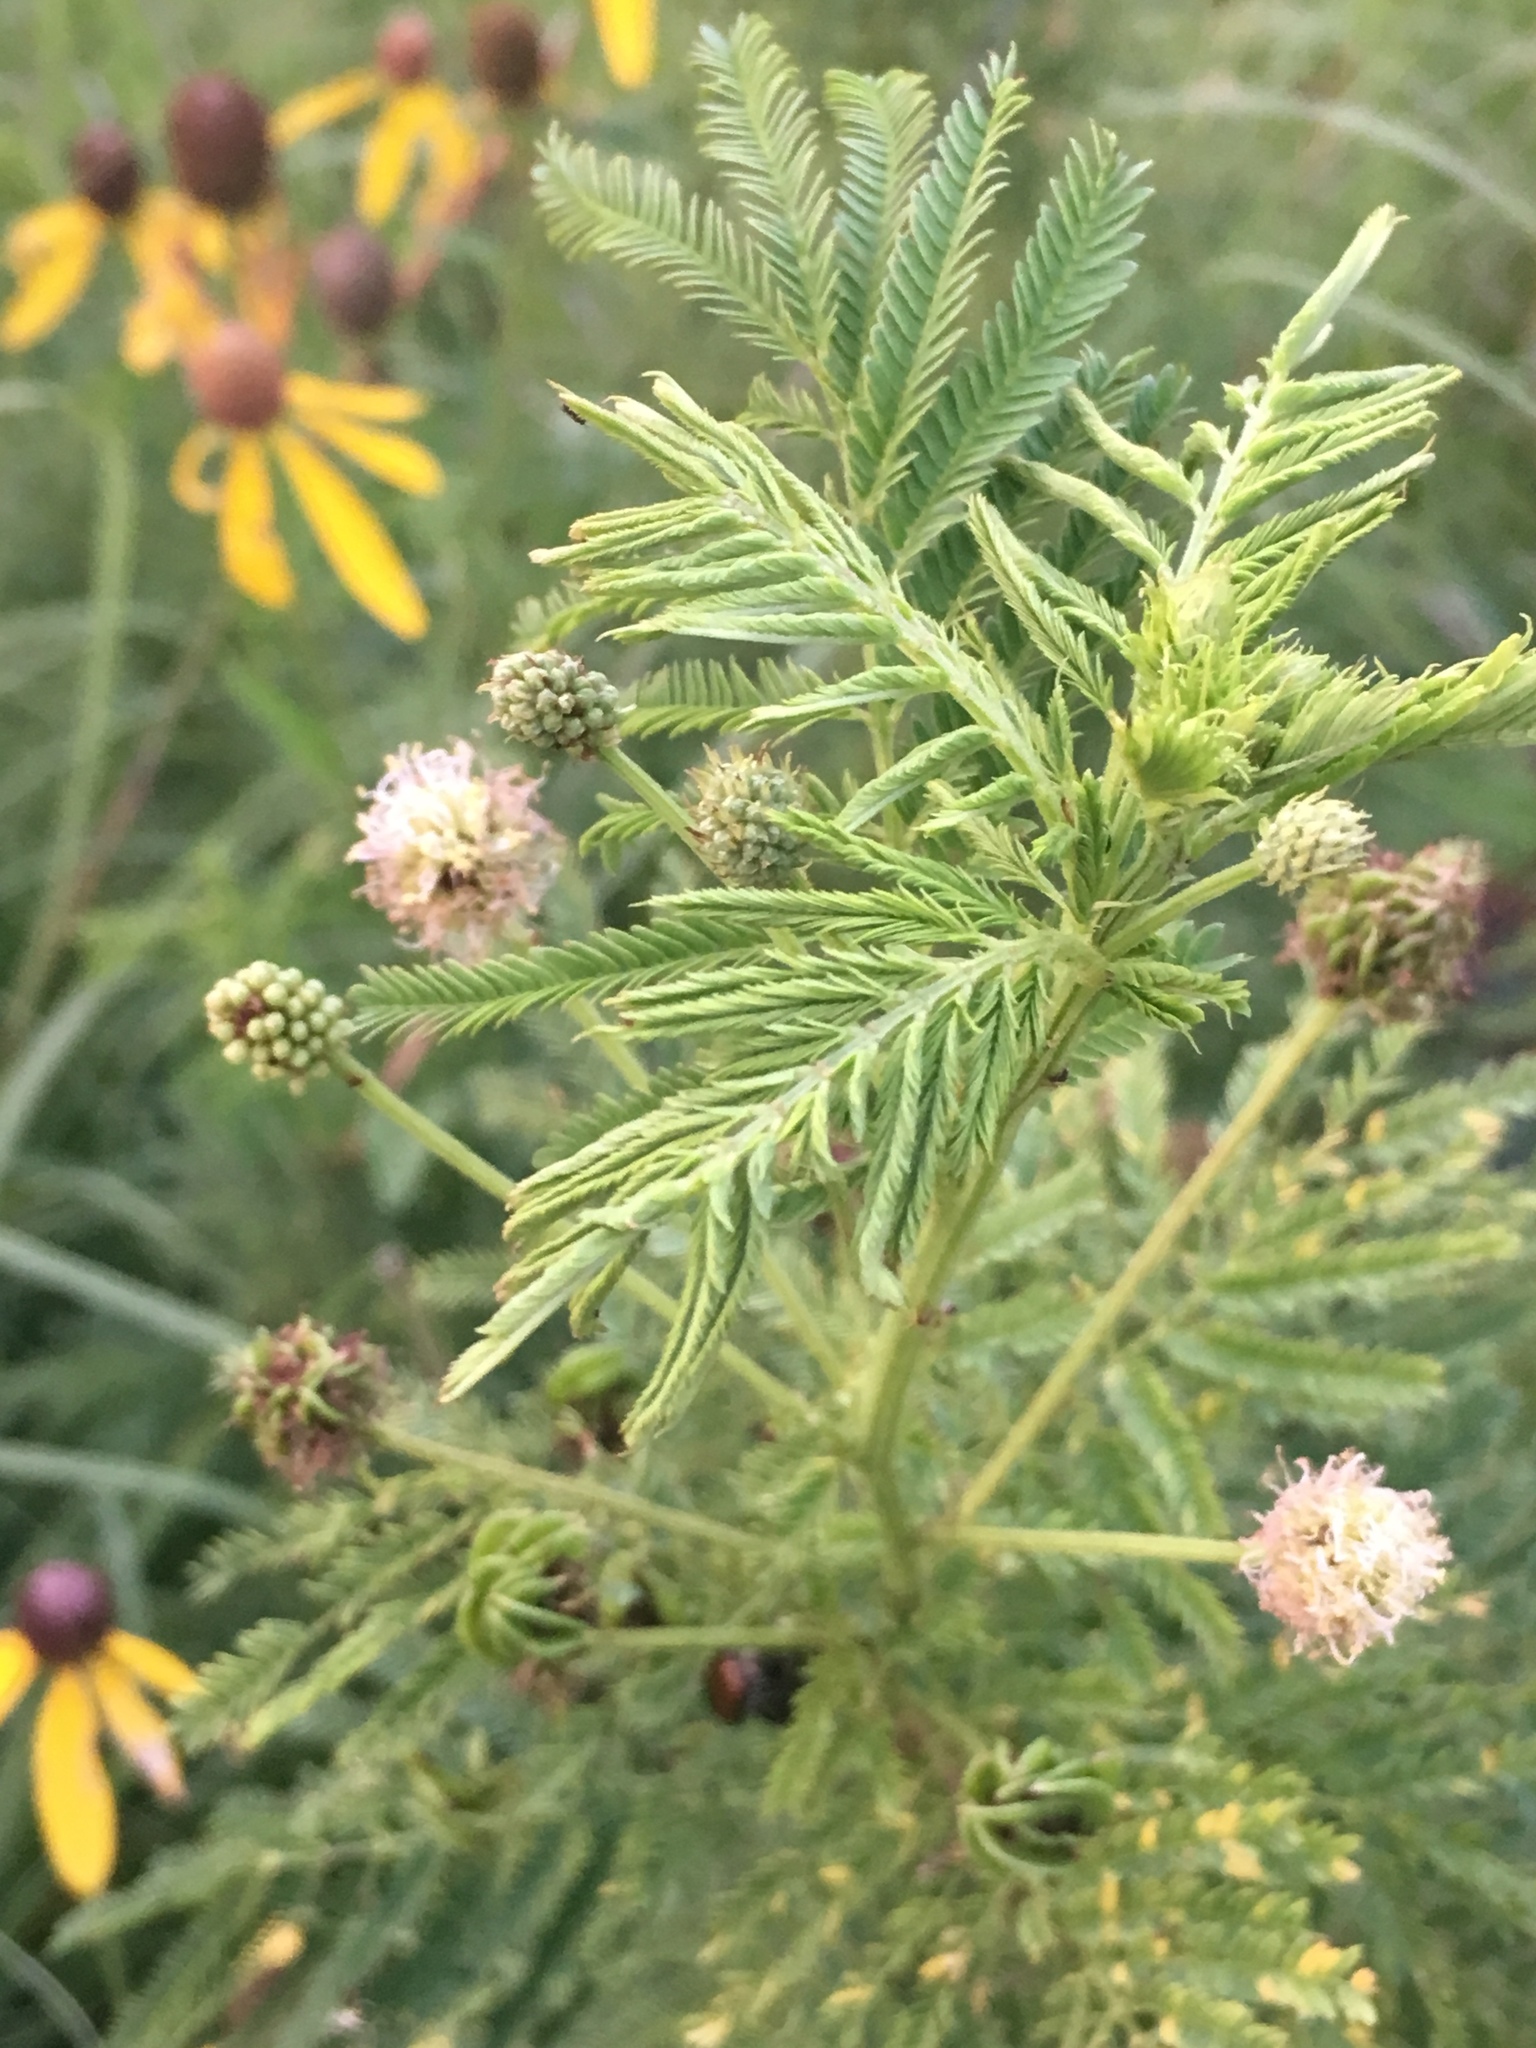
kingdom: Plantae
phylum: Tracheophyta
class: Magnoliopsida
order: Fabales
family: Fabaceae
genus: Desmanthus
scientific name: Desmanthus illinoensis
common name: Illinois bundle-flower
